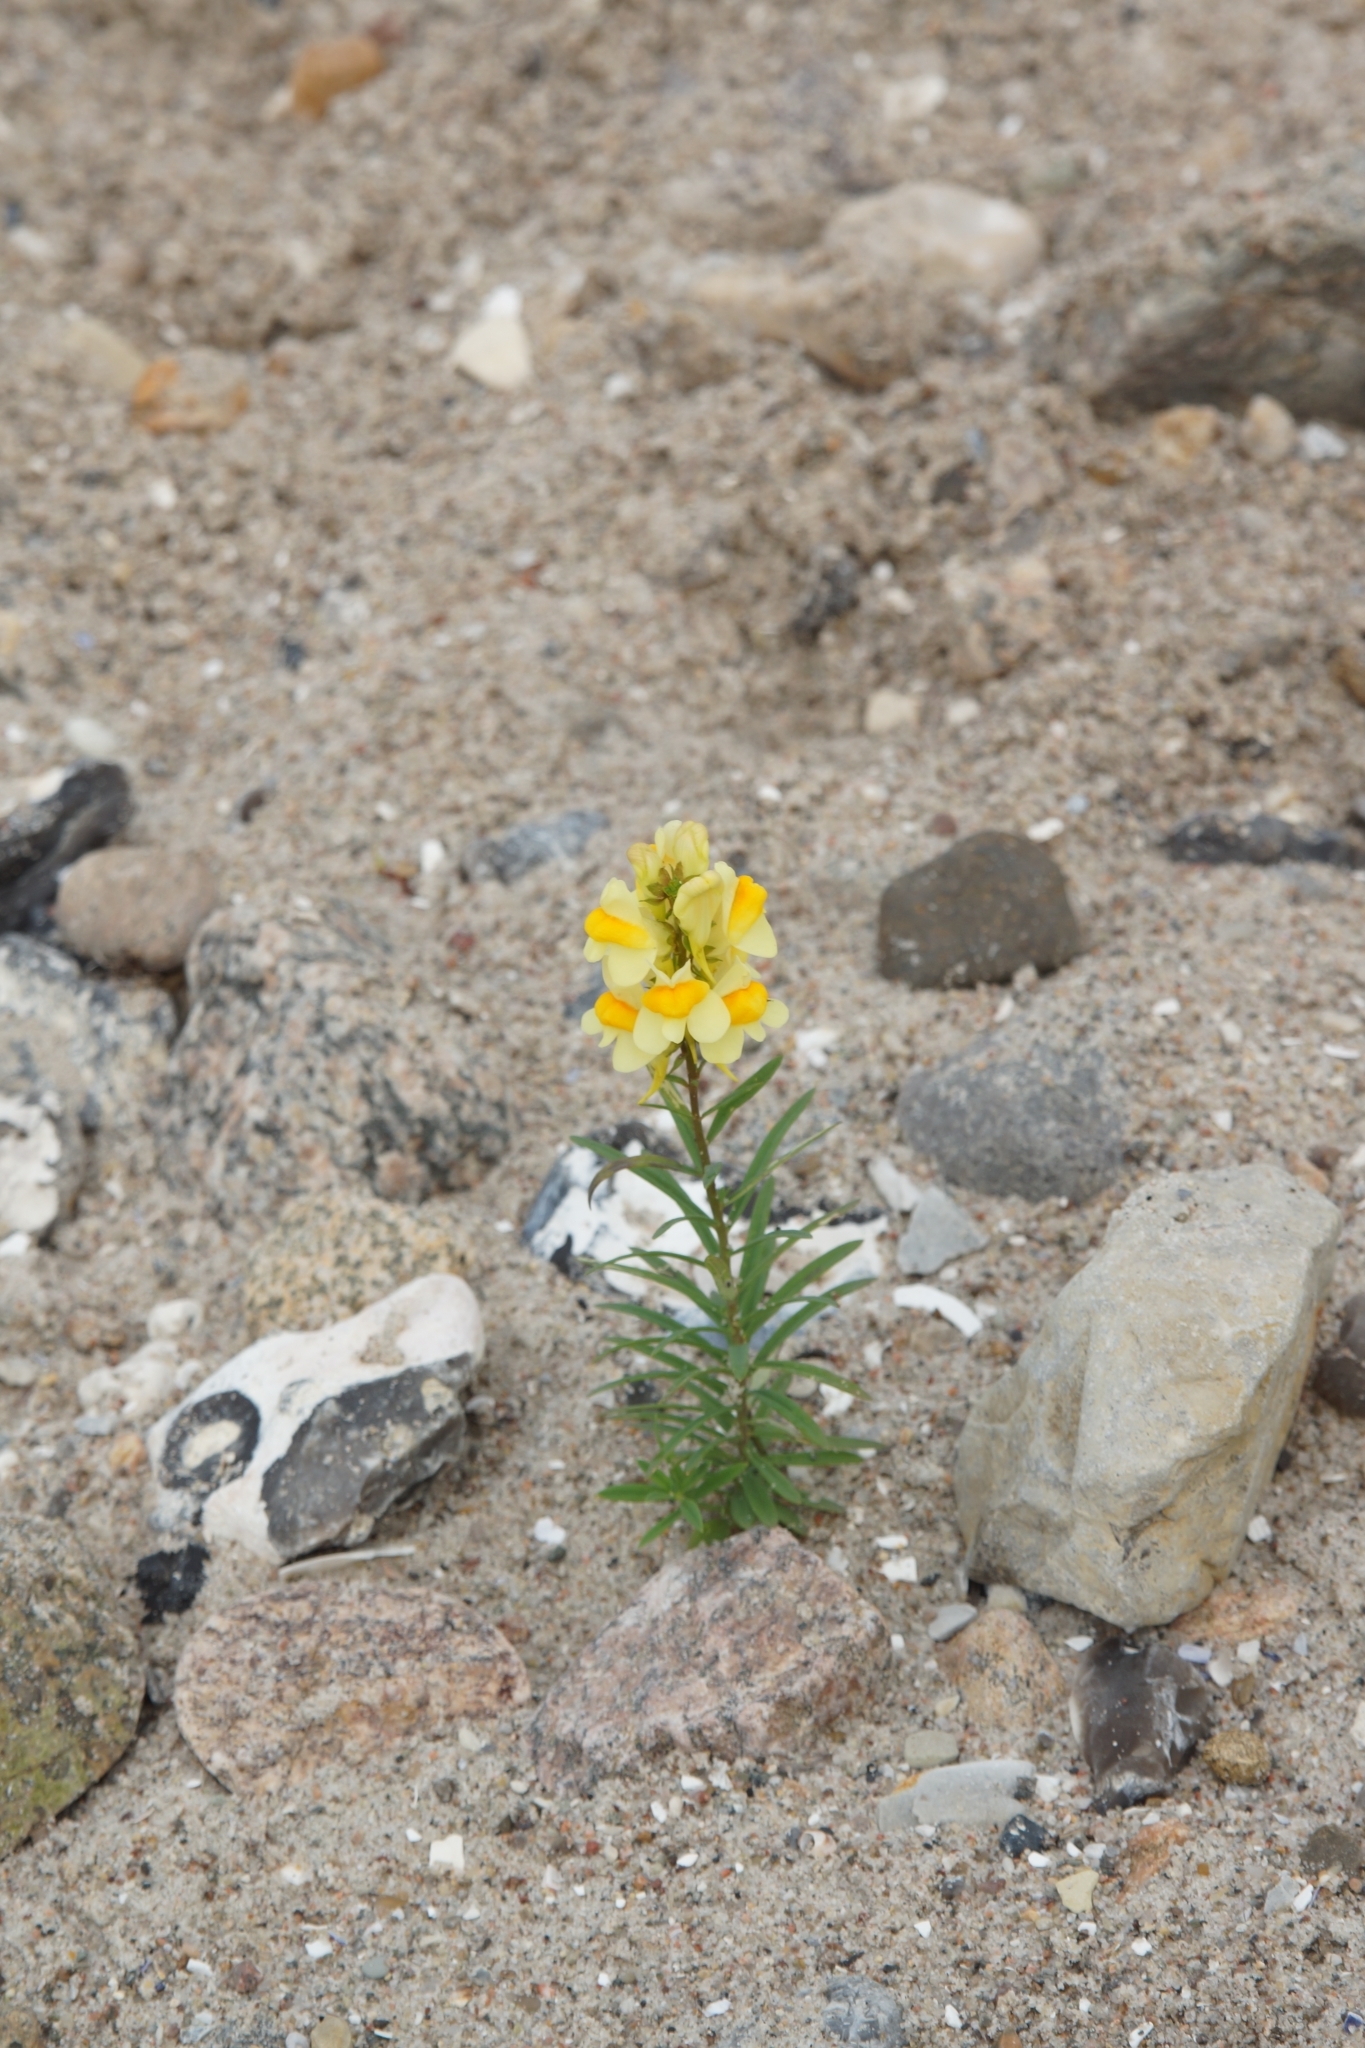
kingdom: Plantae
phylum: Tracheophyta
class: Magnoliopsida
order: Lamiales
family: Plantaginaceae
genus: Linaria
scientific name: Linaria vulgaris
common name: Butter and eggs
